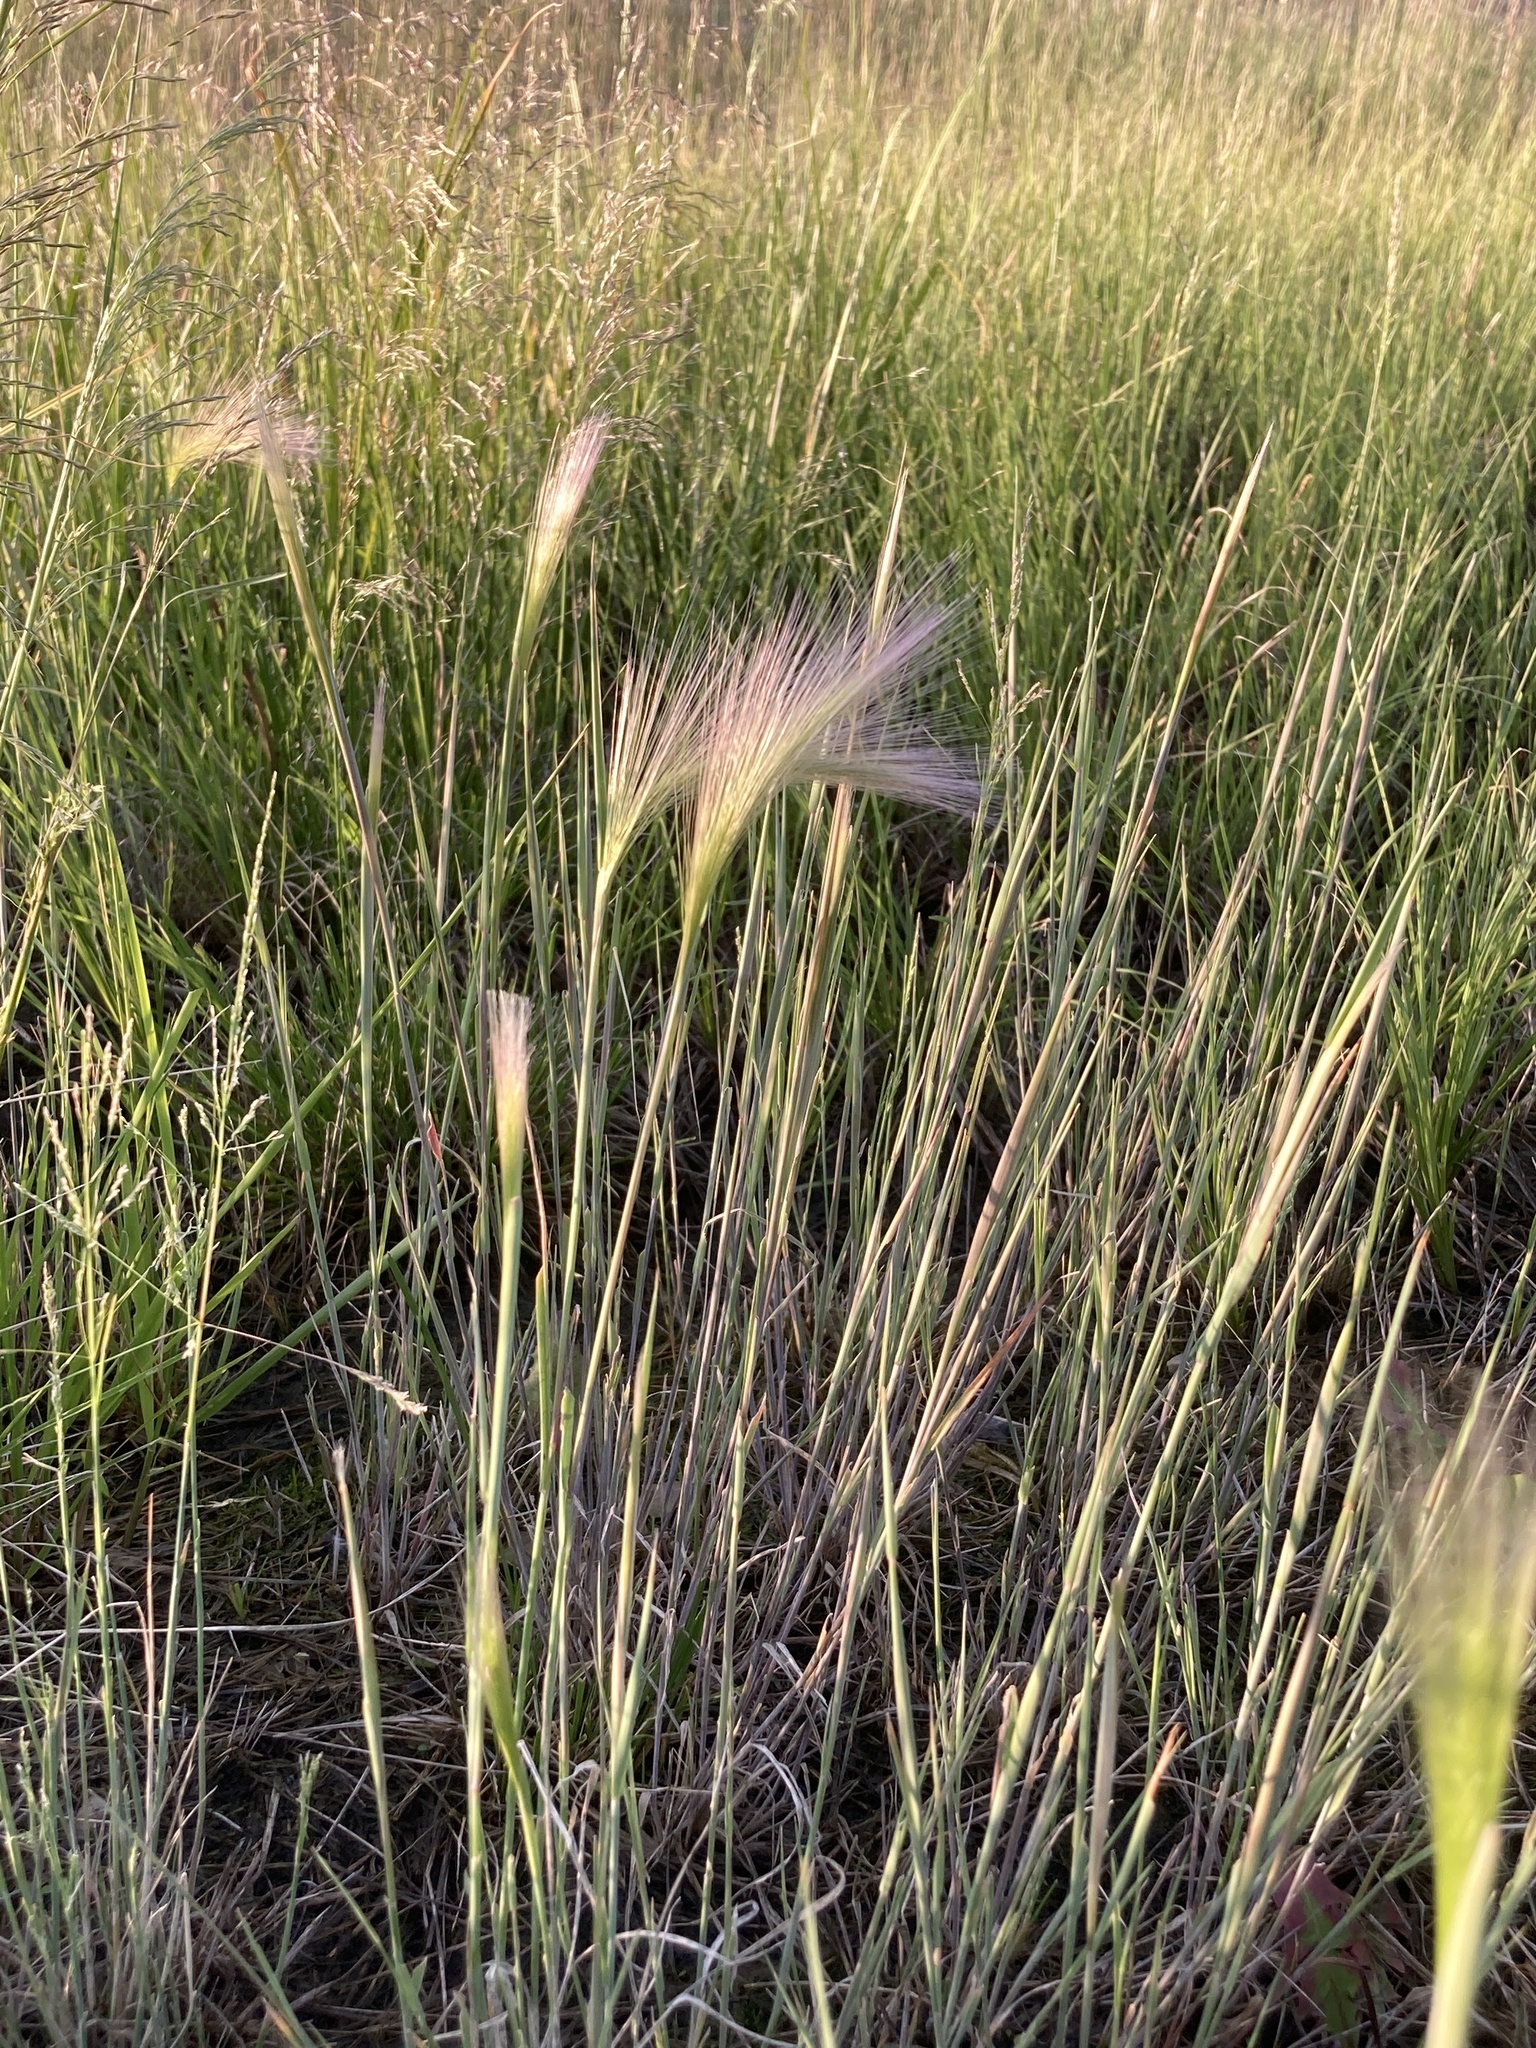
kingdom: Plantae
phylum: Tracheophyta
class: Liliopsida
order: Poales
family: Poaceae
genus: Hordeum
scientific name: Hordeum jubatum
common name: Foxtail barley
